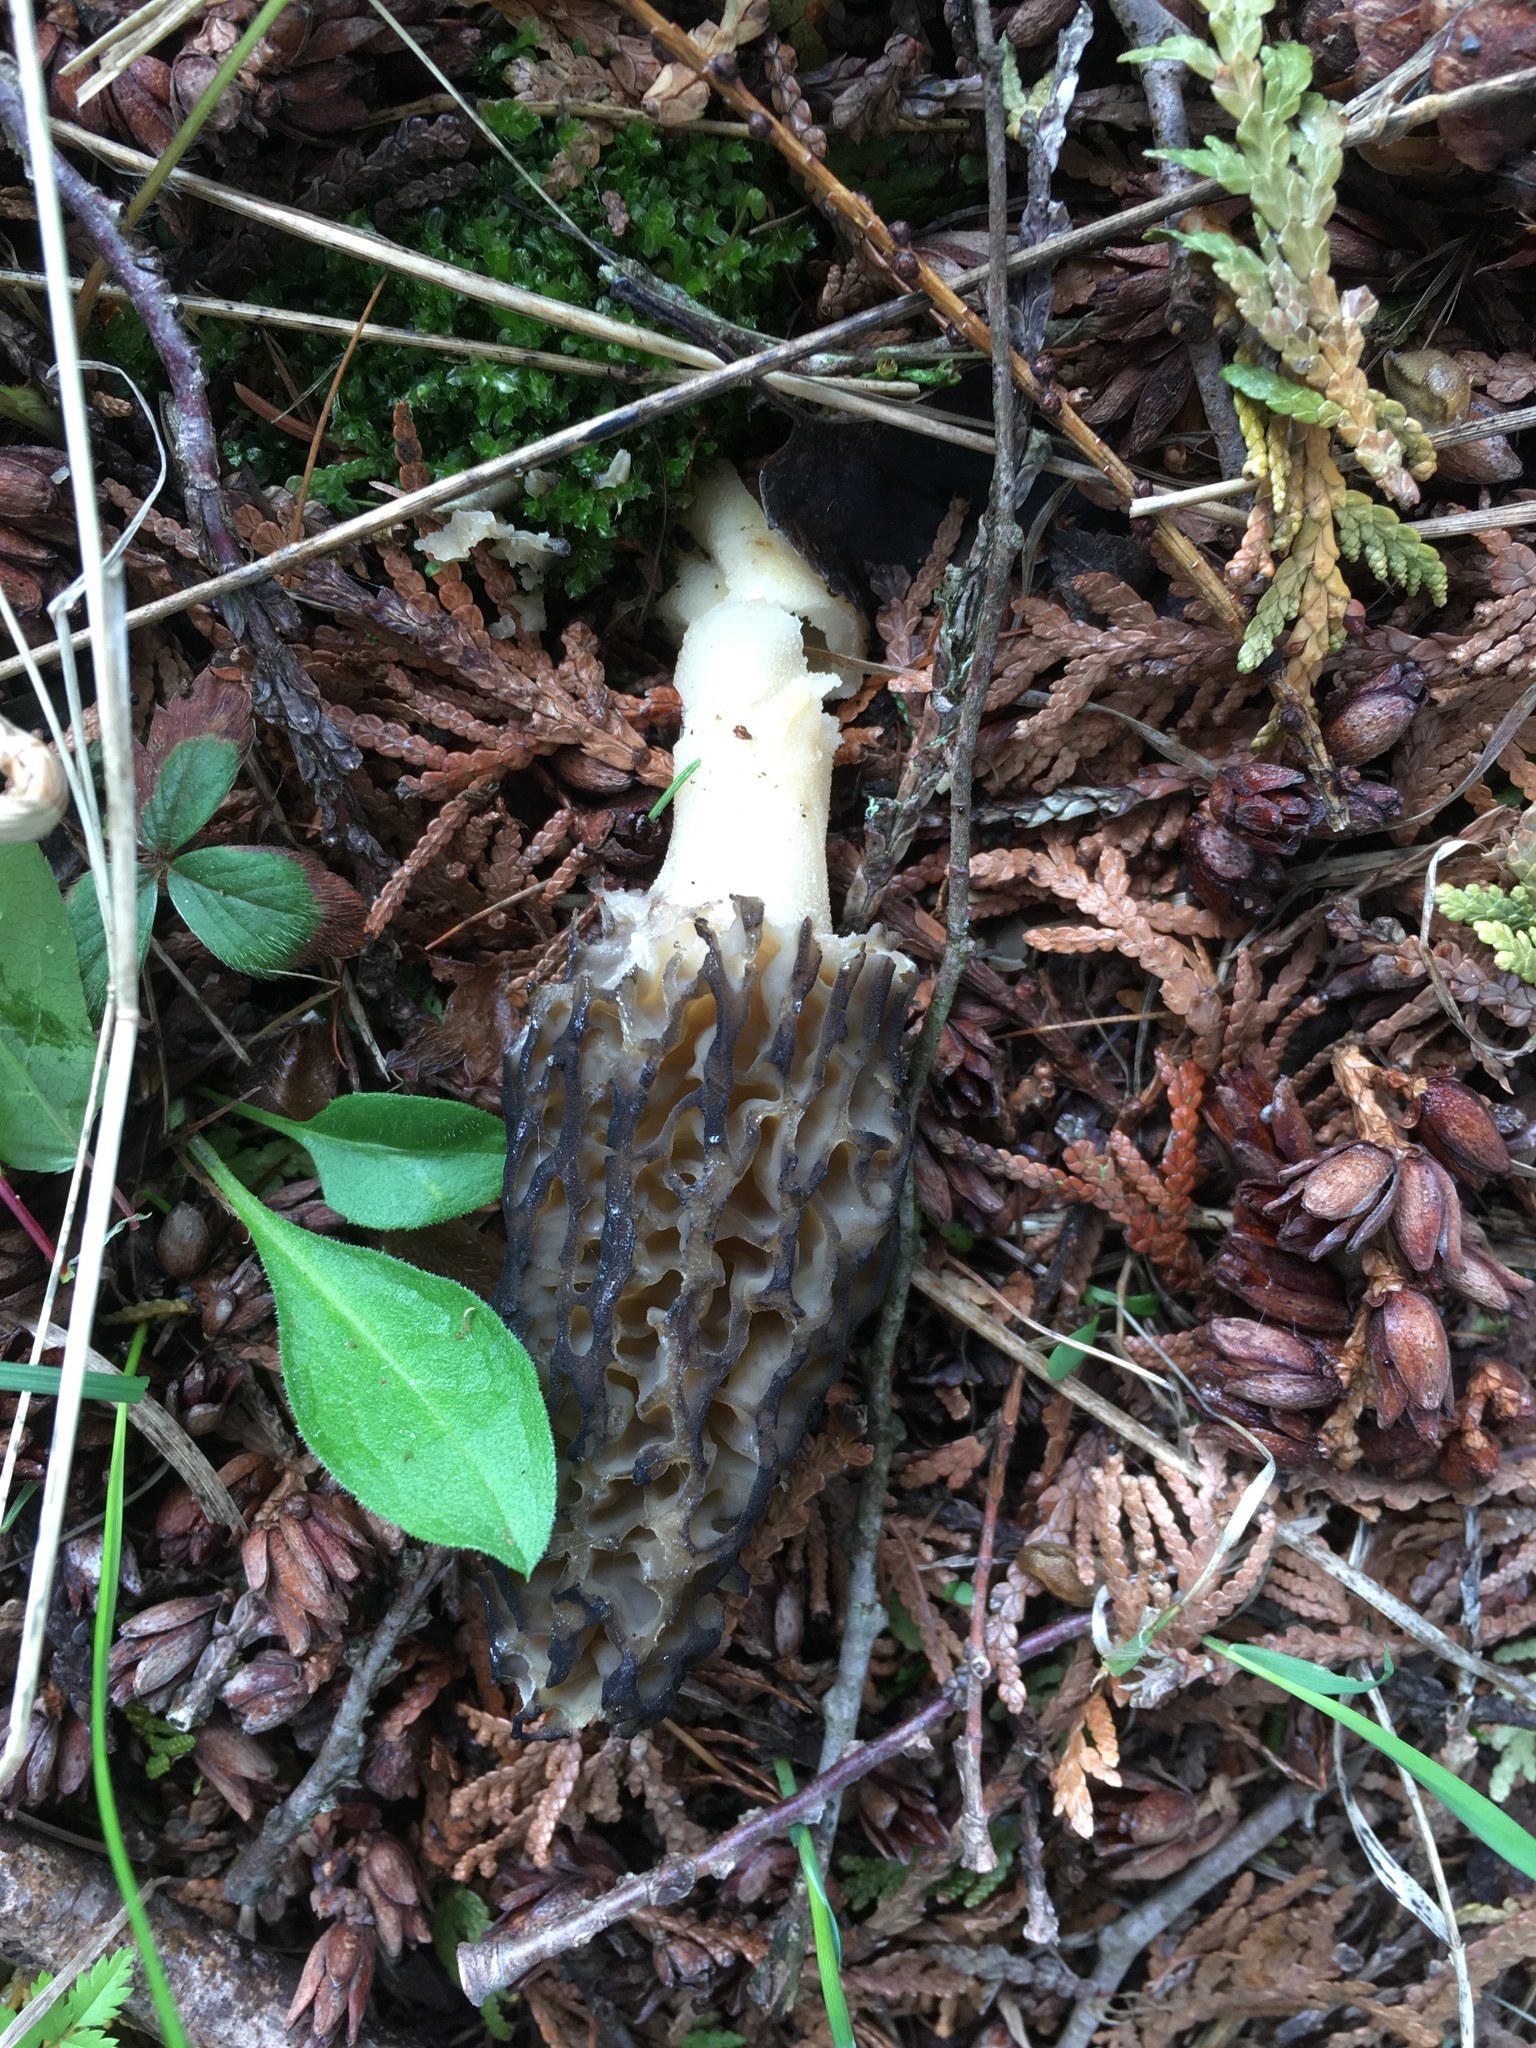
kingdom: Fungi
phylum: Ascomycota
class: Pezizomycetes
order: Pezizales
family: Morchellaceae
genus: Morchella
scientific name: Morchella angusticeps
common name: Black morel
